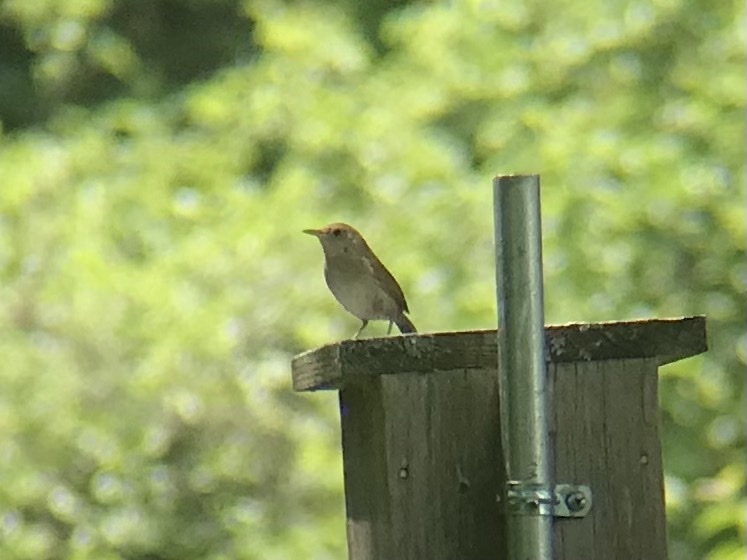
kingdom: Animalia
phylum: Chordata
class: Aves
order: Passeriformes
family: Troglodytidae
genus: Troglodytes
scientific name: Troglodytes aedon
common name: House wren
